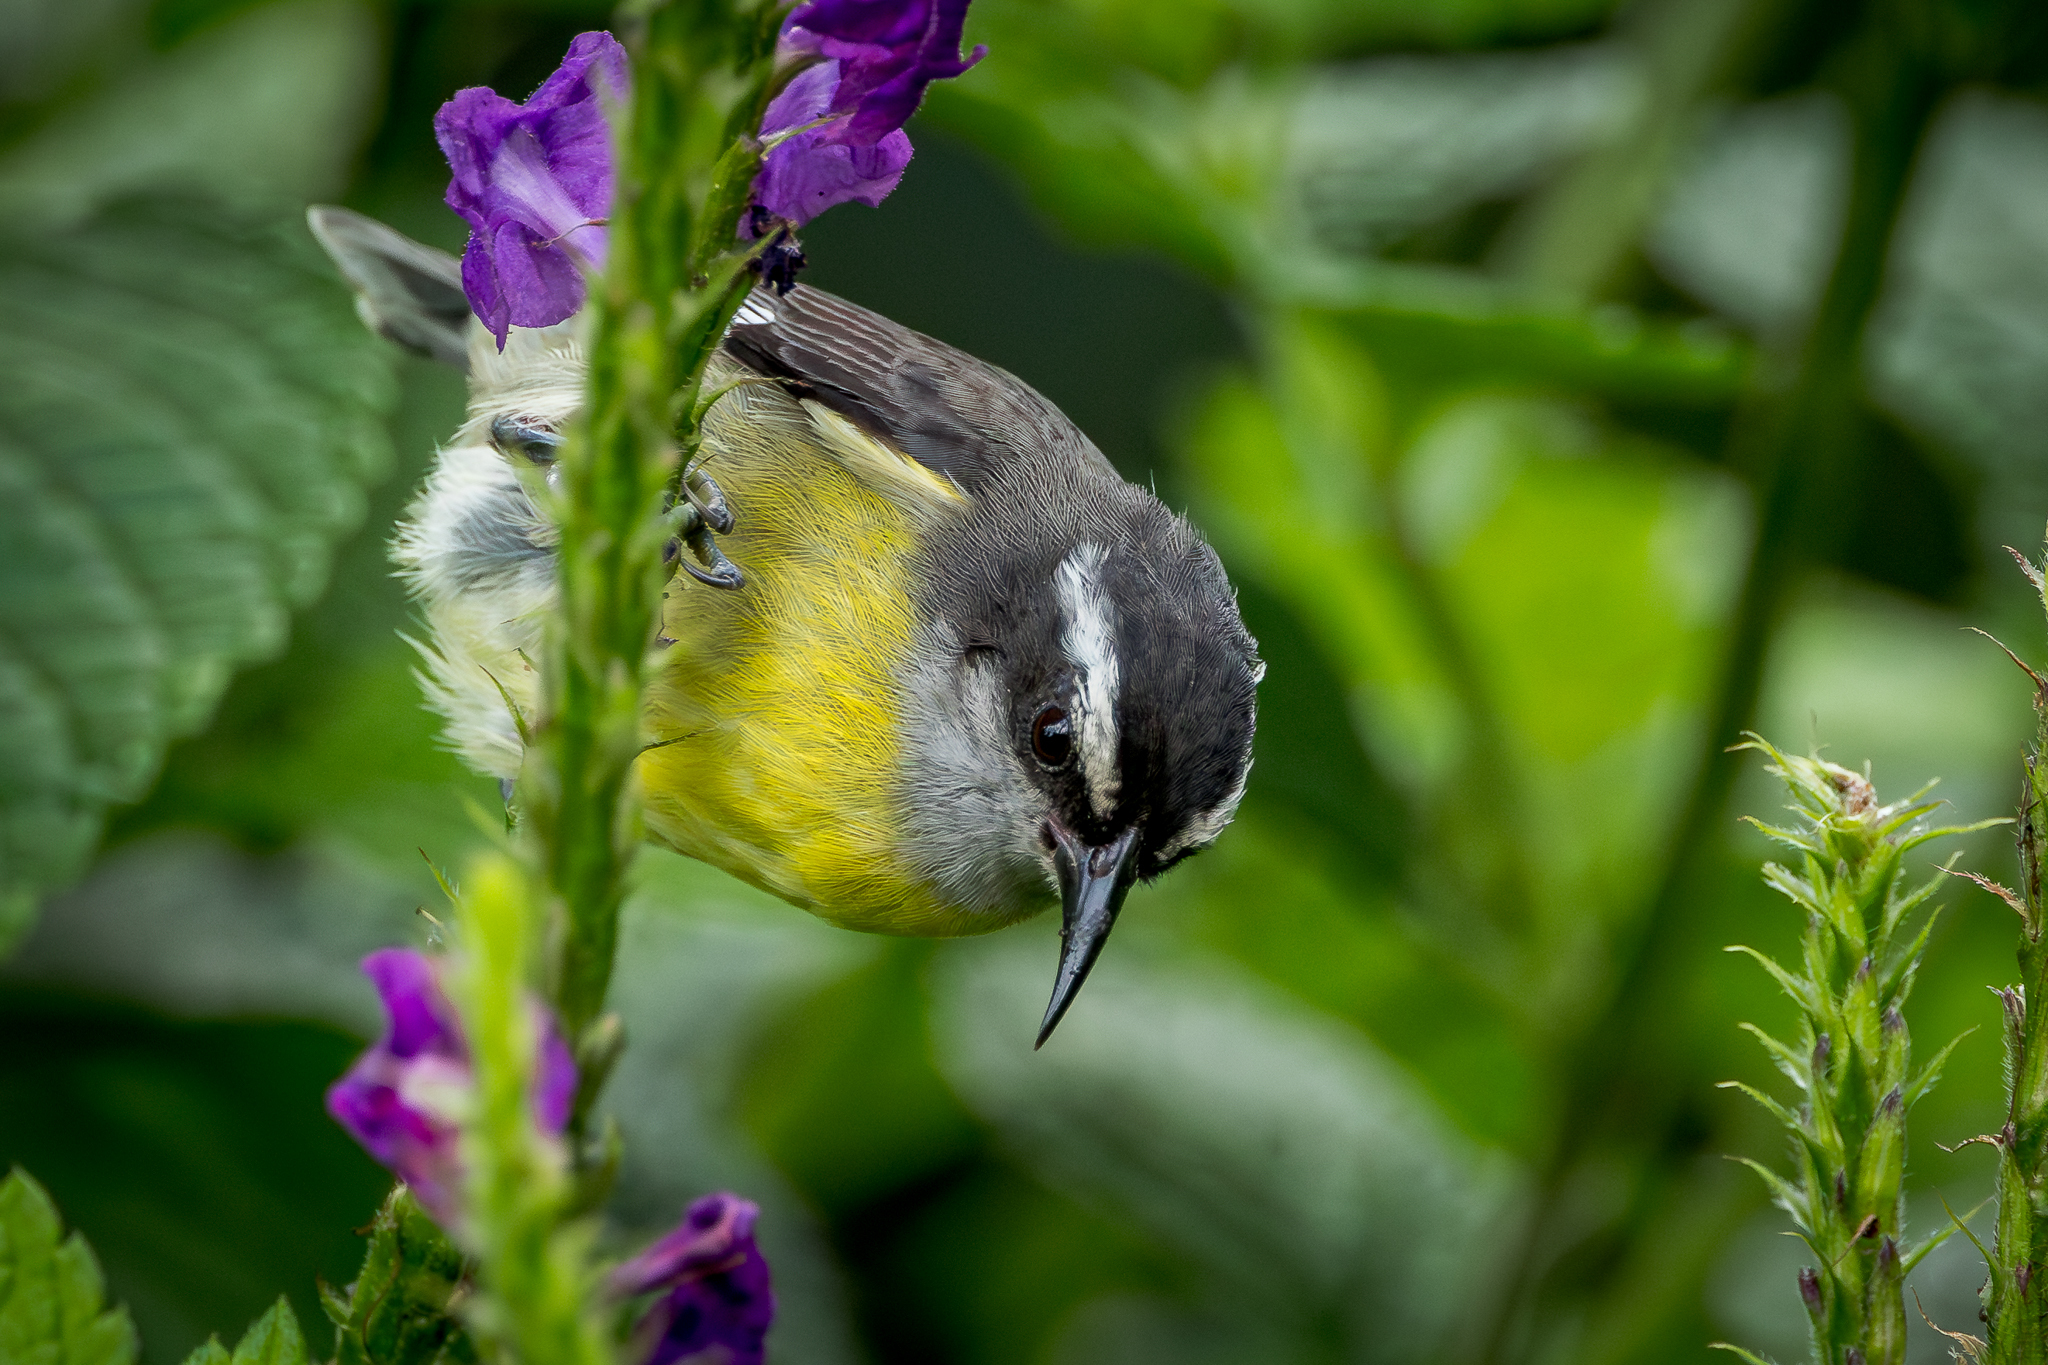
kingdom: Animalia
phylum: Chordata
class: Aves
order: Passeriformes
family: Thraupidae
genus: Coereba
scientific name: Coereba flaveola
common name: Bananaquit
